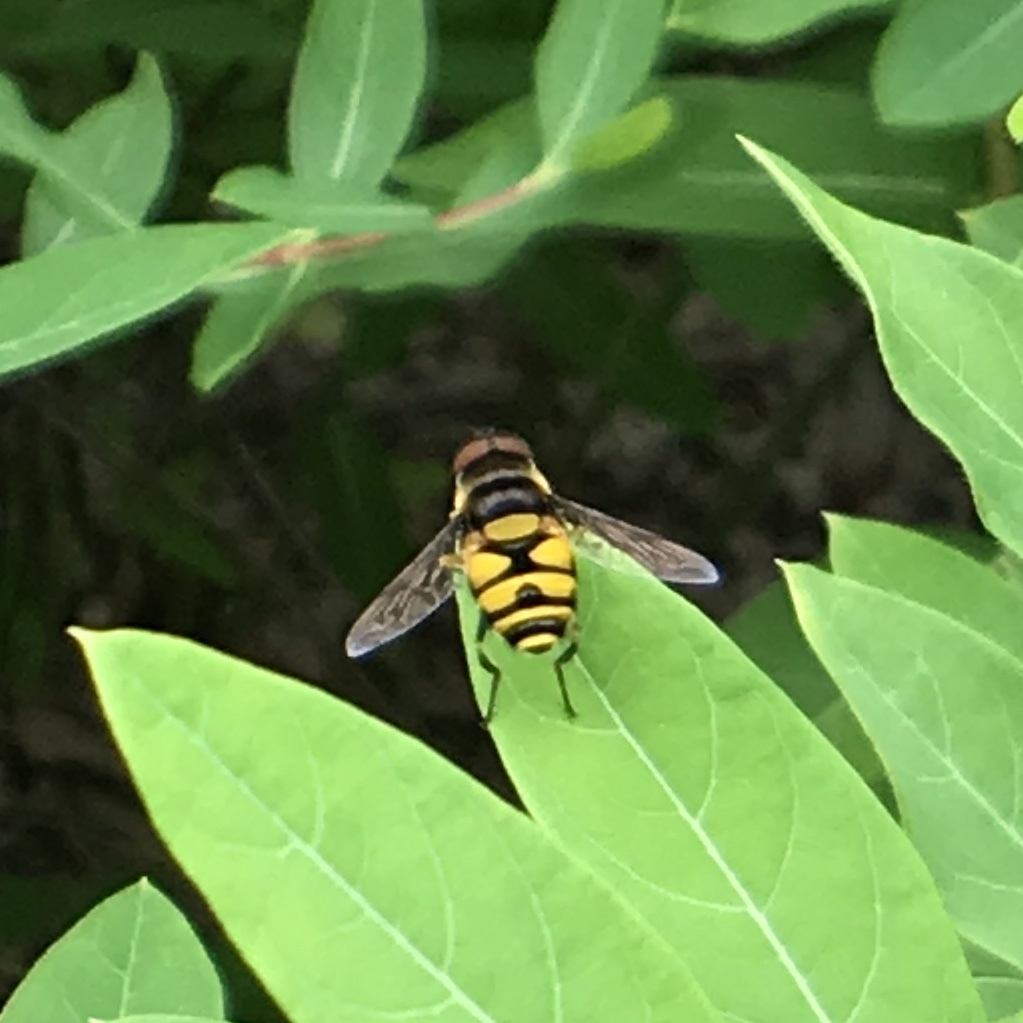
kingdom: Animalia
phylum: Arthropoda
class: Insecta
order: Diptera
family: Syrphidae
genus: Eristalis
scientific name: Eristalis transversa
